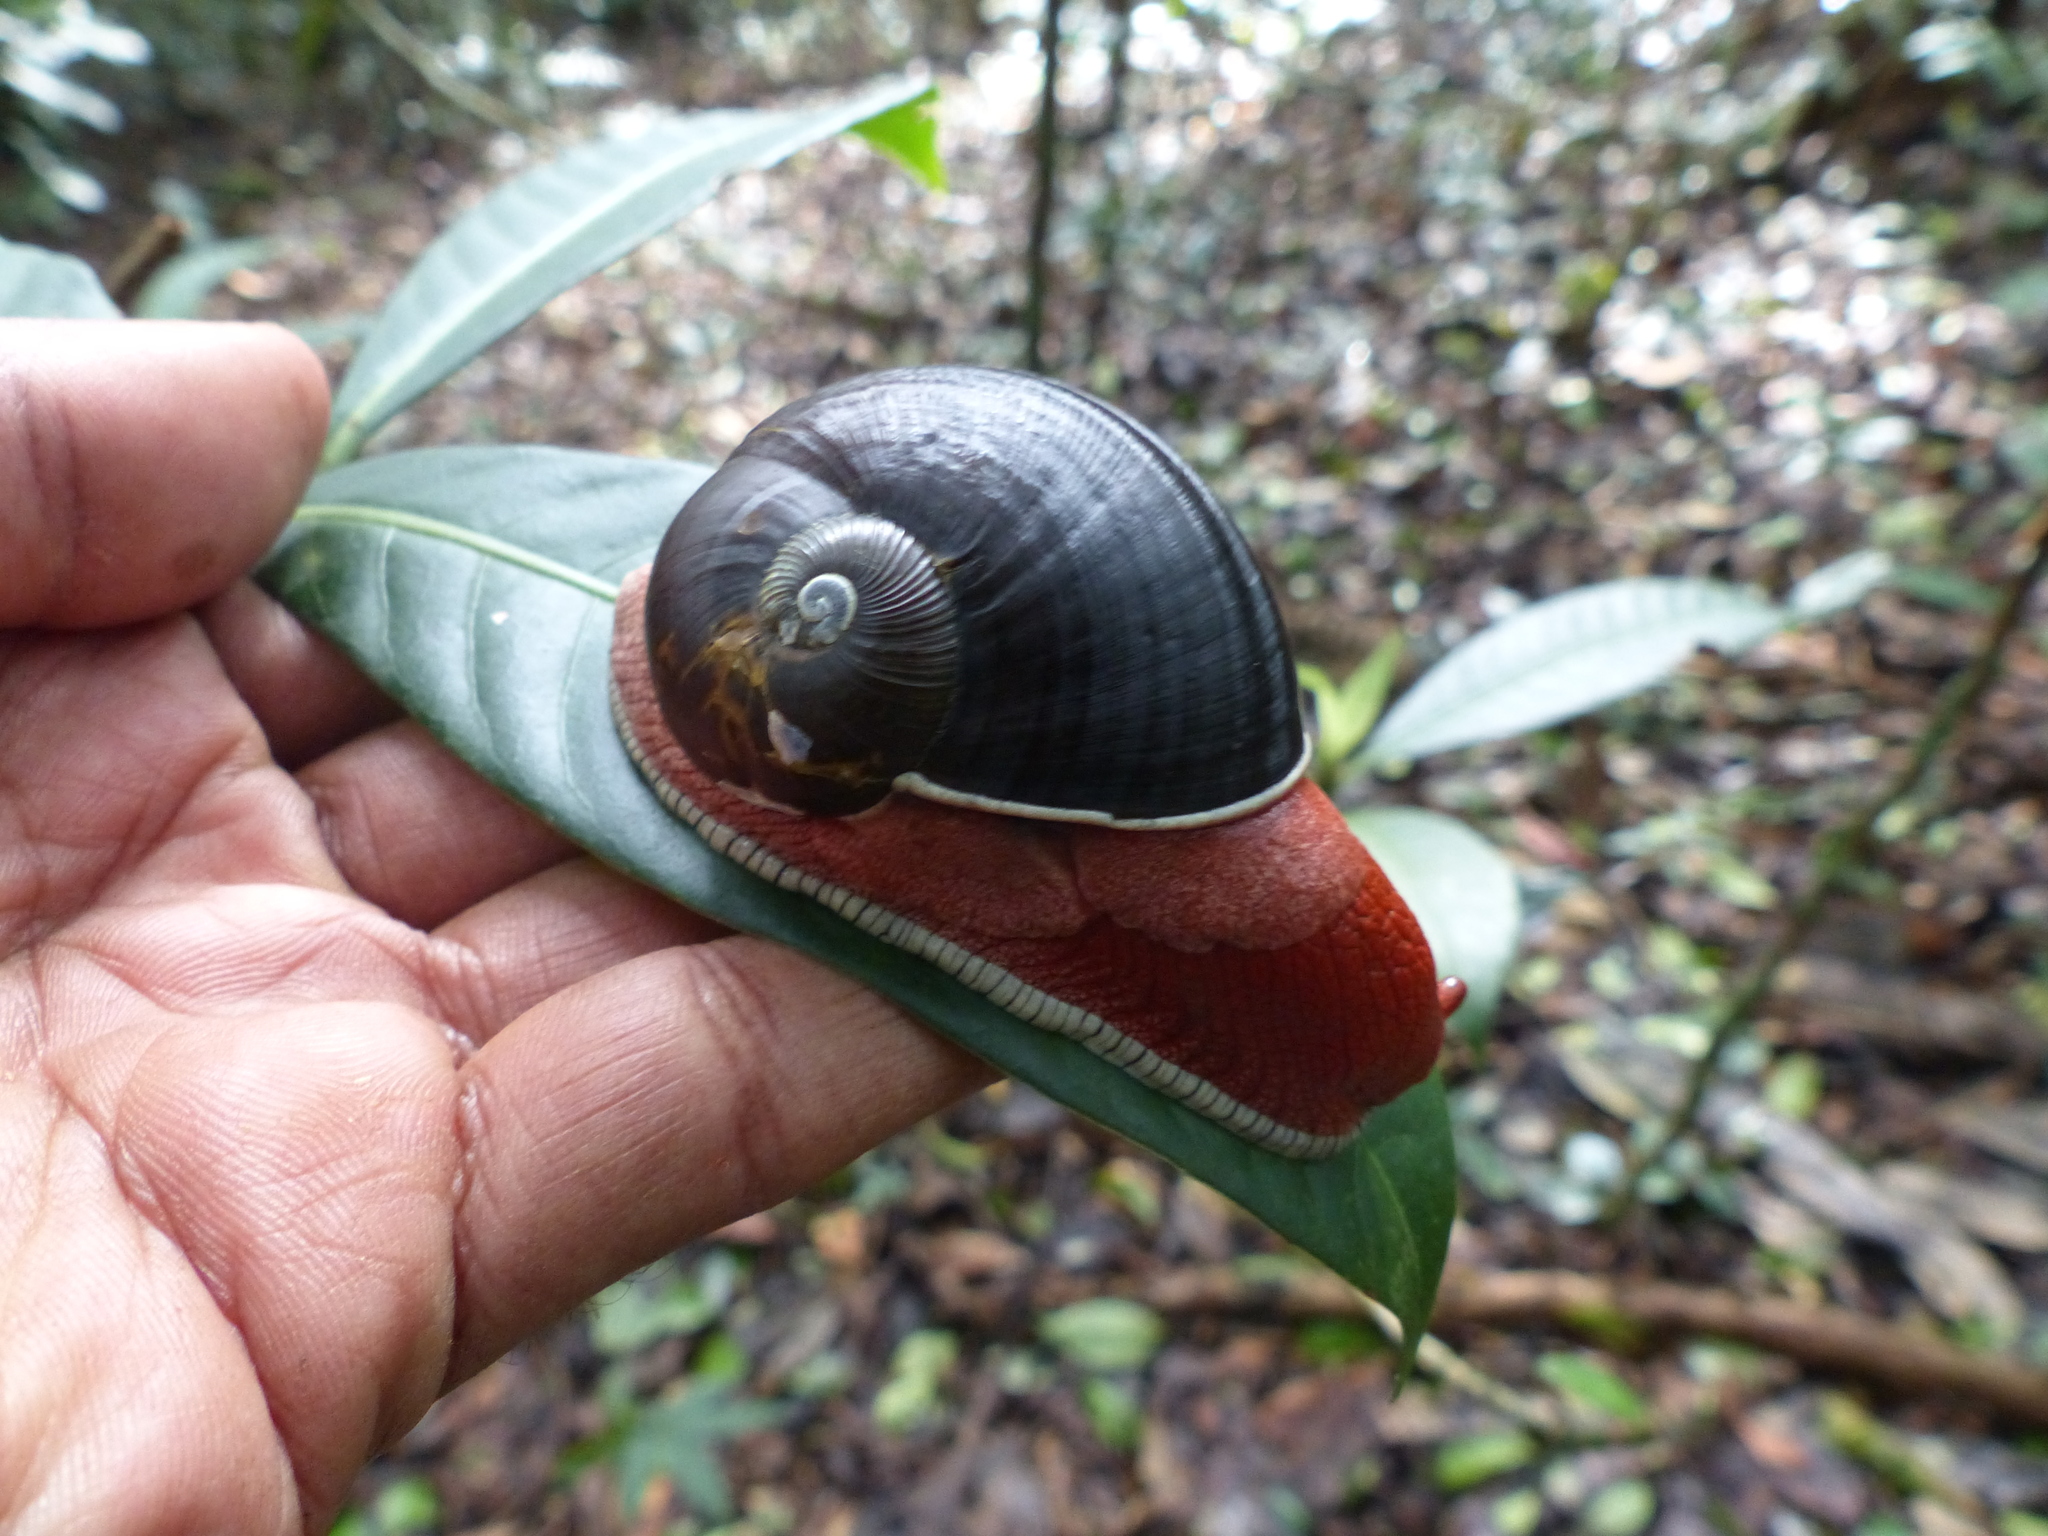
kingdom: Animalia
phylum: Mollusca
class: Gastropoda
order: Stylommatophora
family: Ariophantidae
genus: Indrella
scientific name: Indrella ampulla
